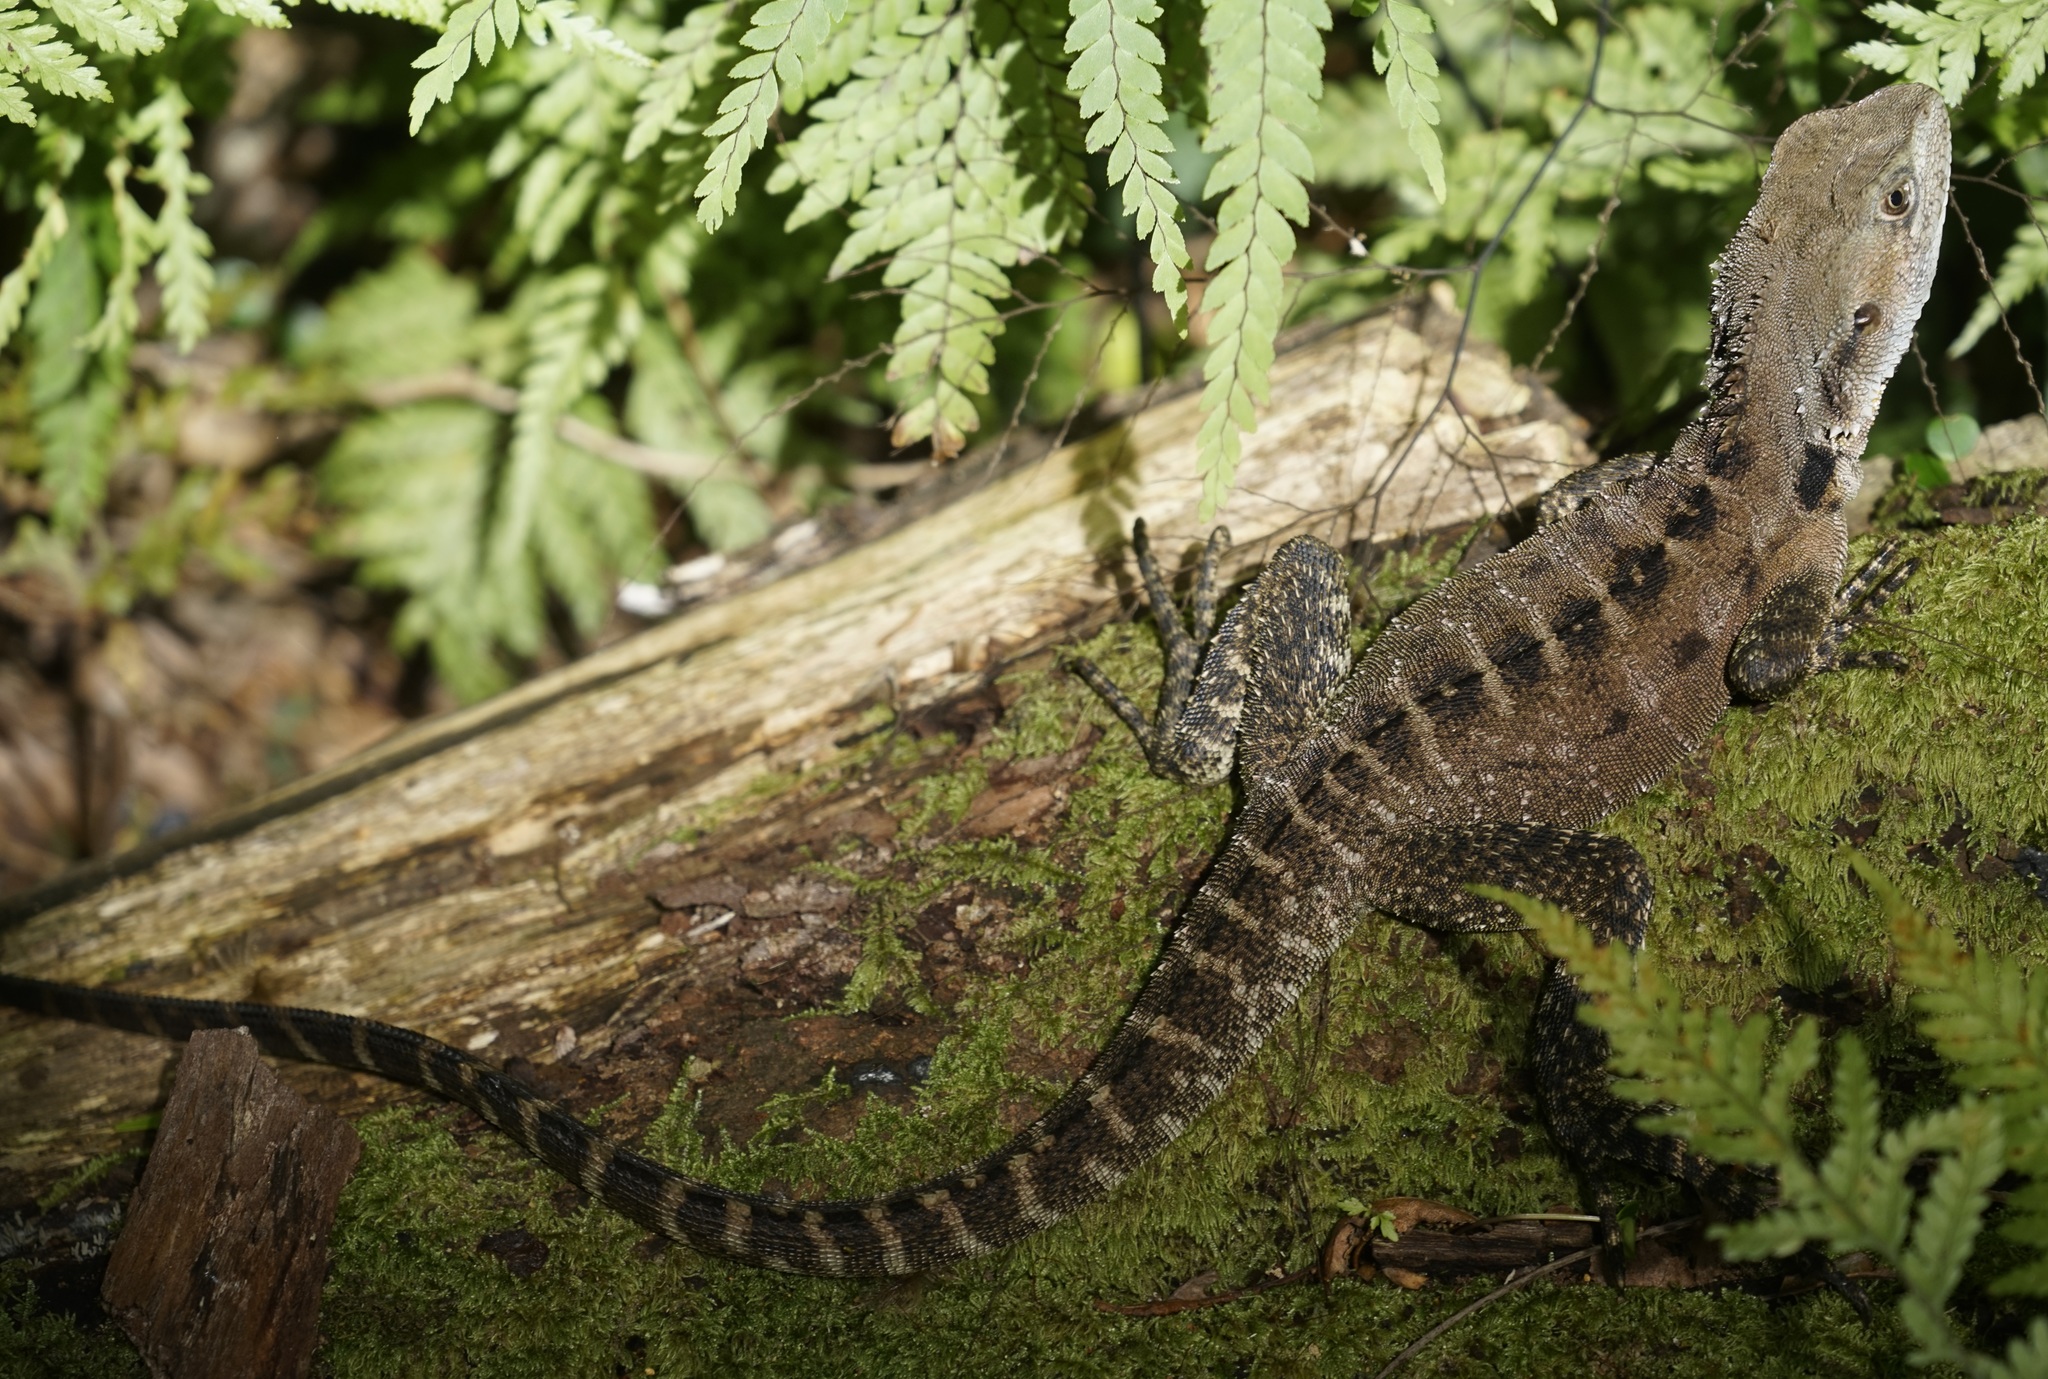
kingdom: Animalia
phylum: Chordata
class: Squamata
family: Agamidae
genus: Intellagama
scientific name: Intellagama lesueurii
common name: Eastern water dragon
